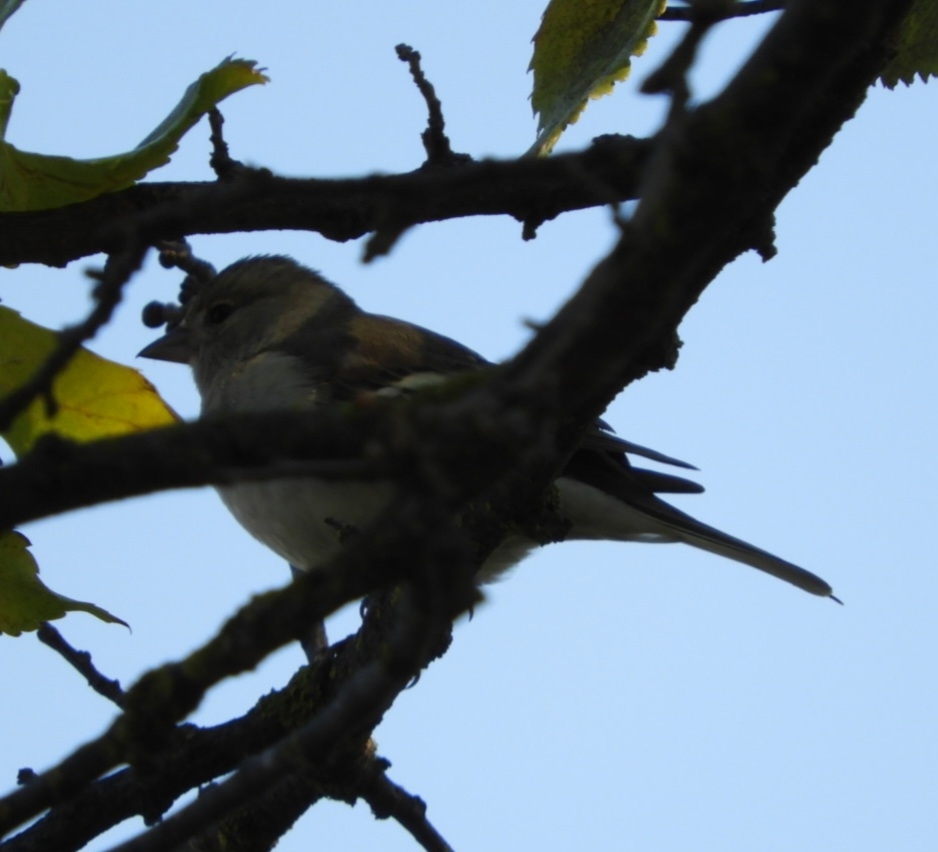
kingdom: Animalia
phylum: Chordata
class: Aves
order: Passeriformes
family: Fringillidae
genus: Fringilla
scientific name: Fringilla coelebs
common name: Common chaffinch
